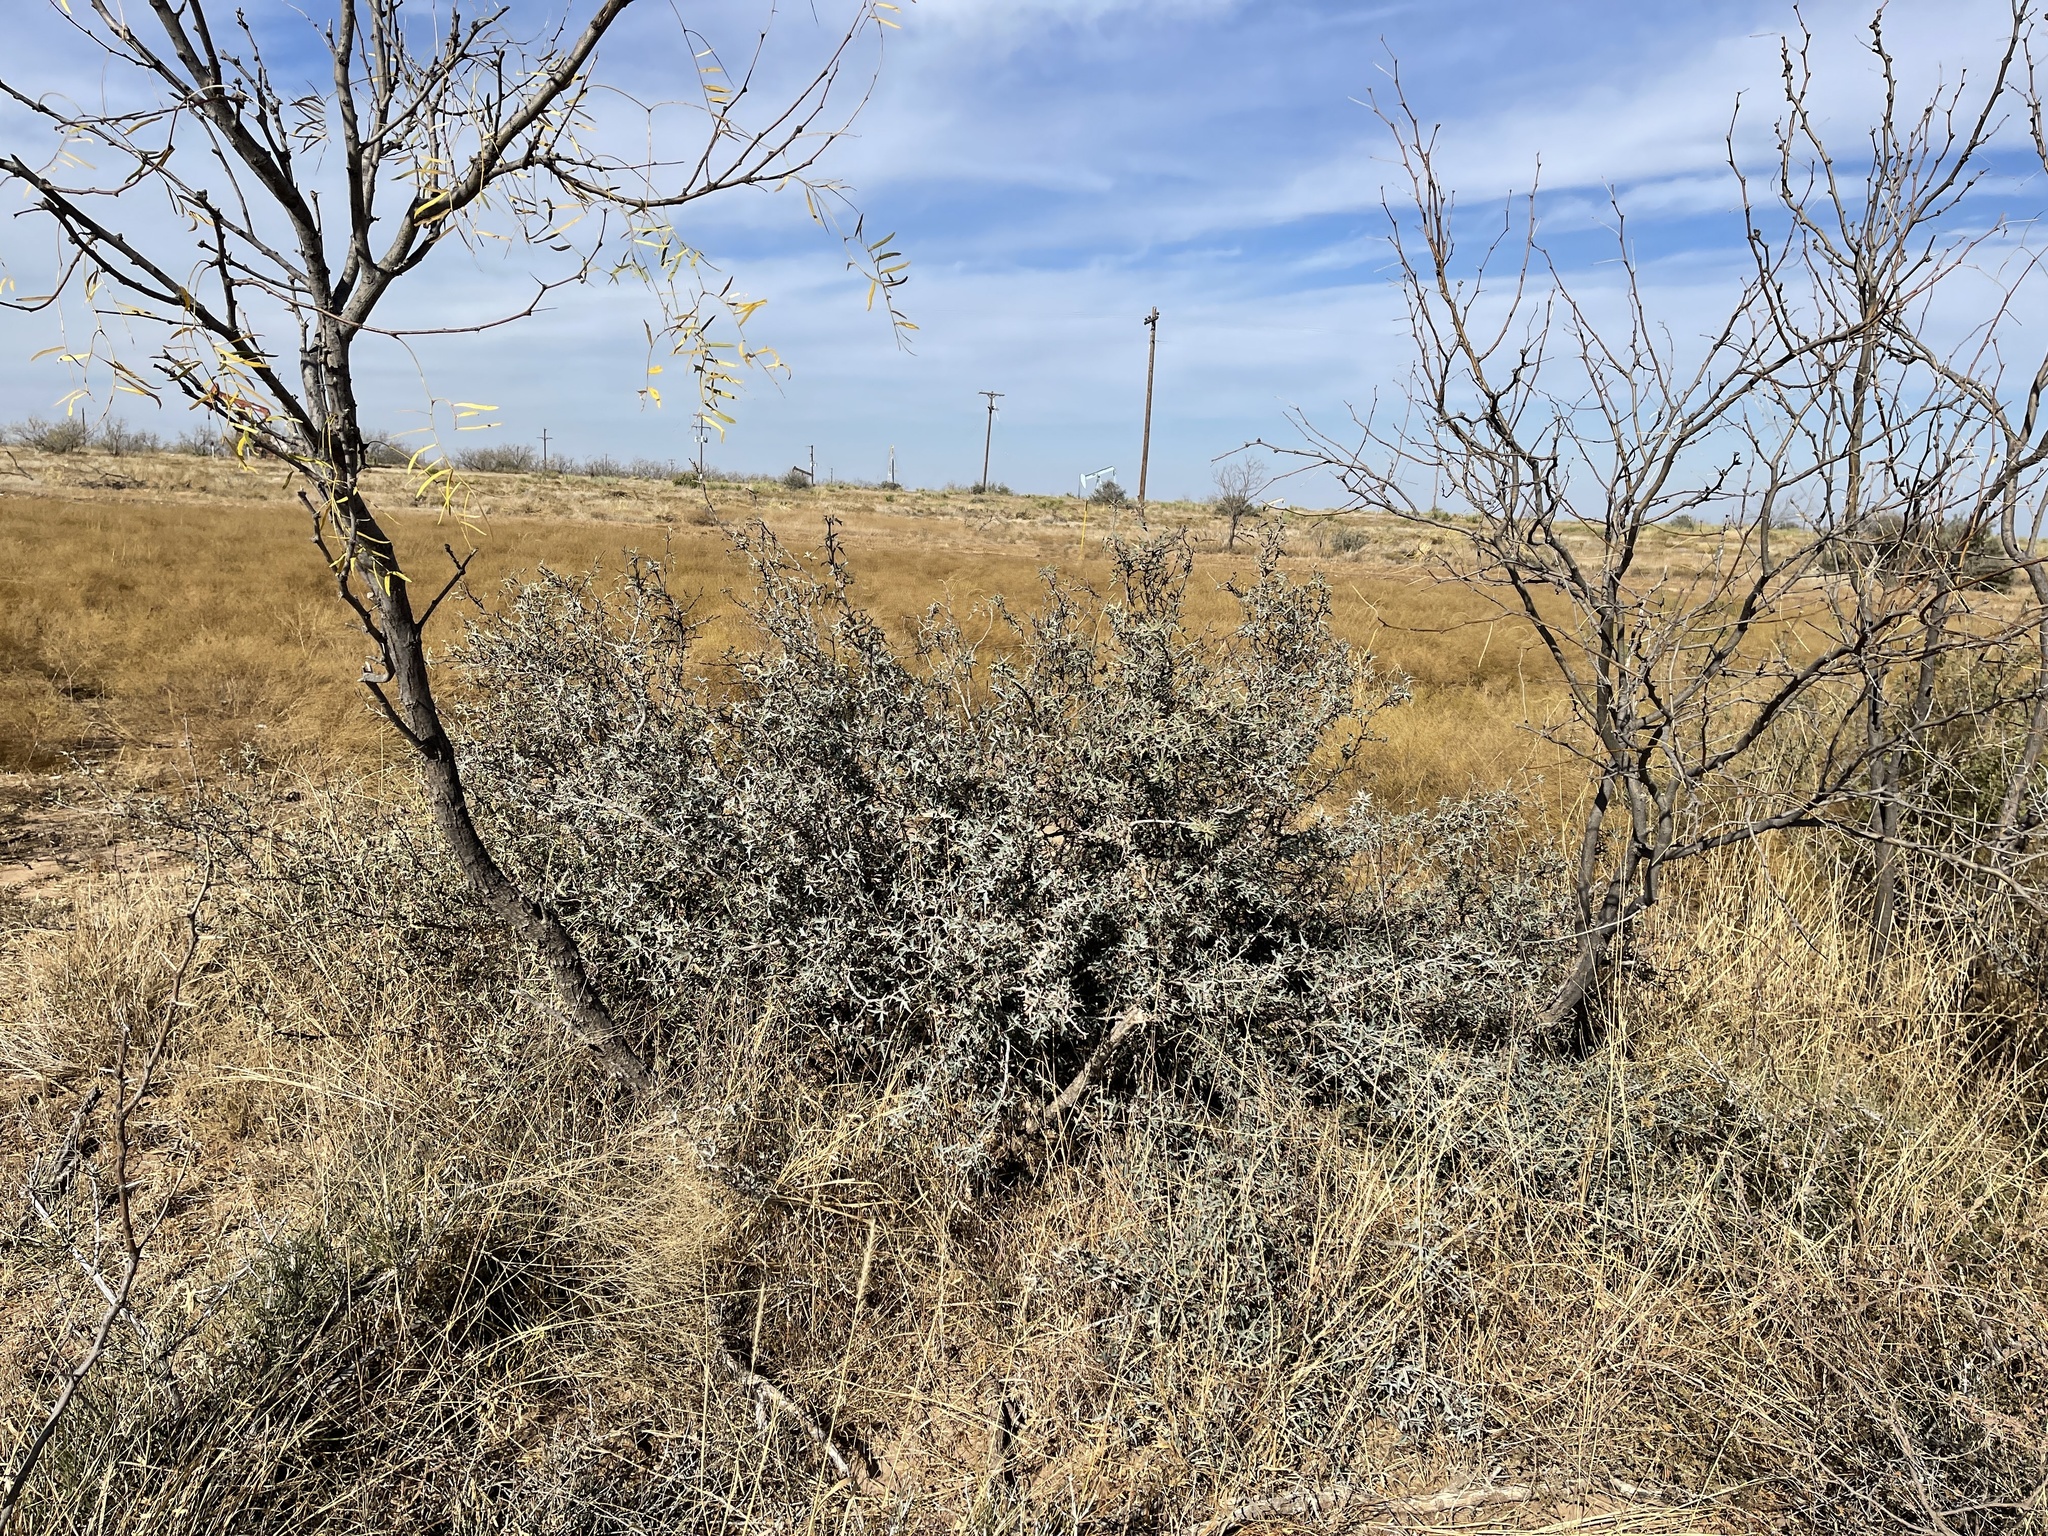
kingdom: Plantae
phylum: Tracheophyta
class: Magnoliopsida
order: Ranunculales
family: Berberidaceae
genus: Alloberberis
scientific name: Alloberberis trifoliolata
